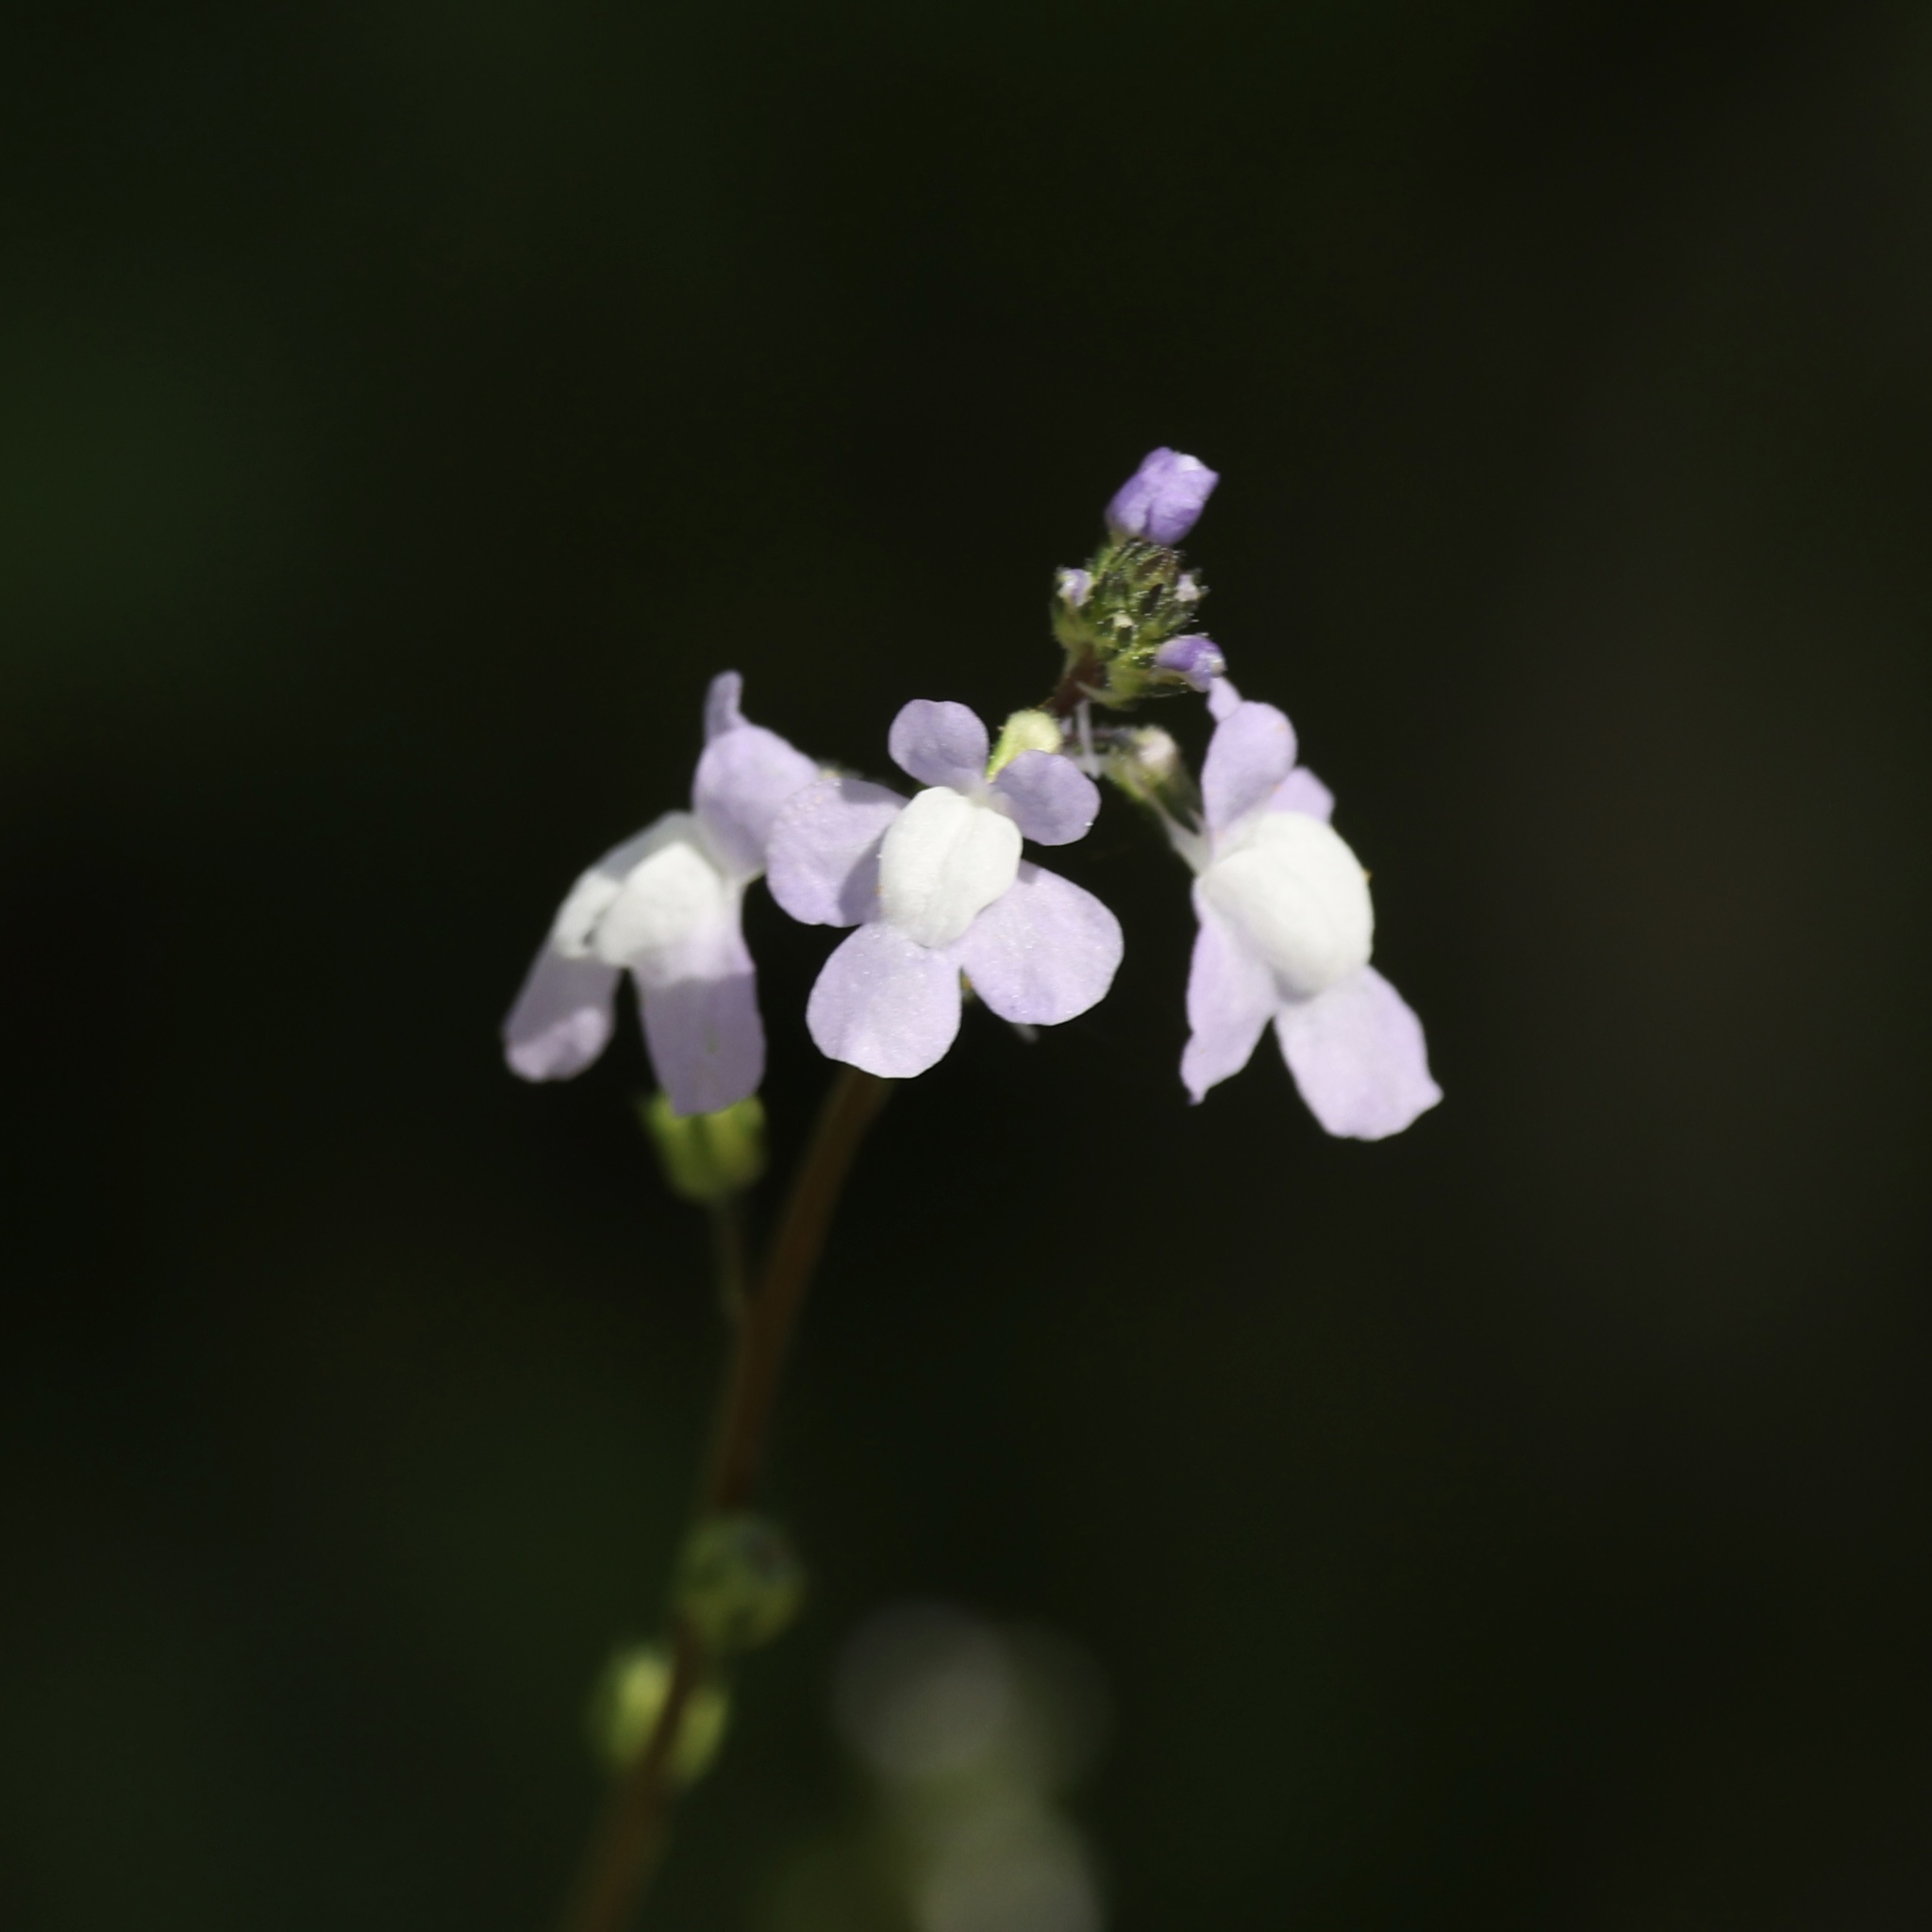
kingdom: Plantae
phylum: Tracheophyta
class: Magnoliopsida
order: Lamiales
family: Plantaginaceae
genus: Nuttallanthus
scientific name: Nuttallanthus canadensis
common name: Blue toadflax
